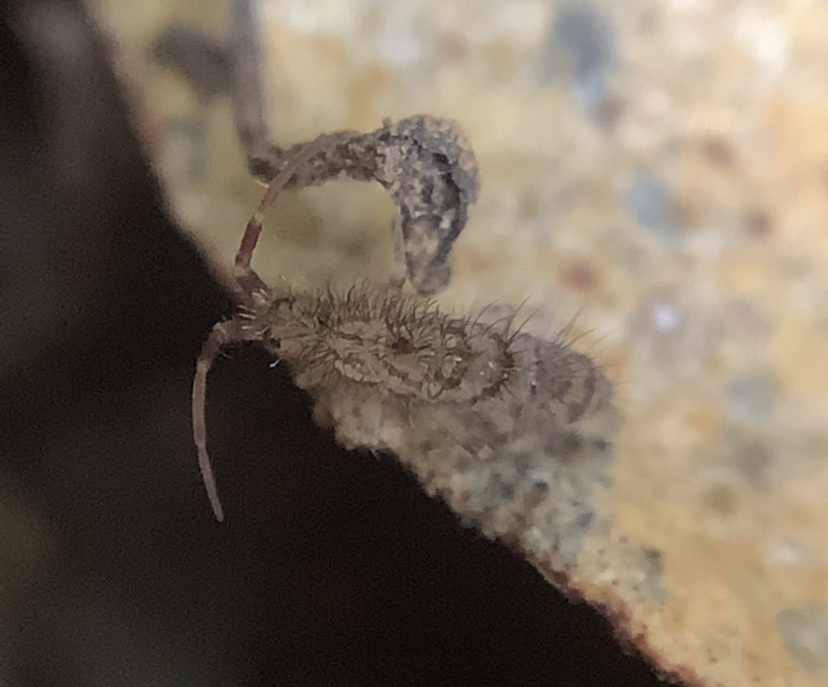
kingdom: Animalia
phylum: Arthropoda
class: Collembola
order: Entomobryomorpha
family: Orchesellidae
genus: Orchesella
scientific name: Orchesella villosa
